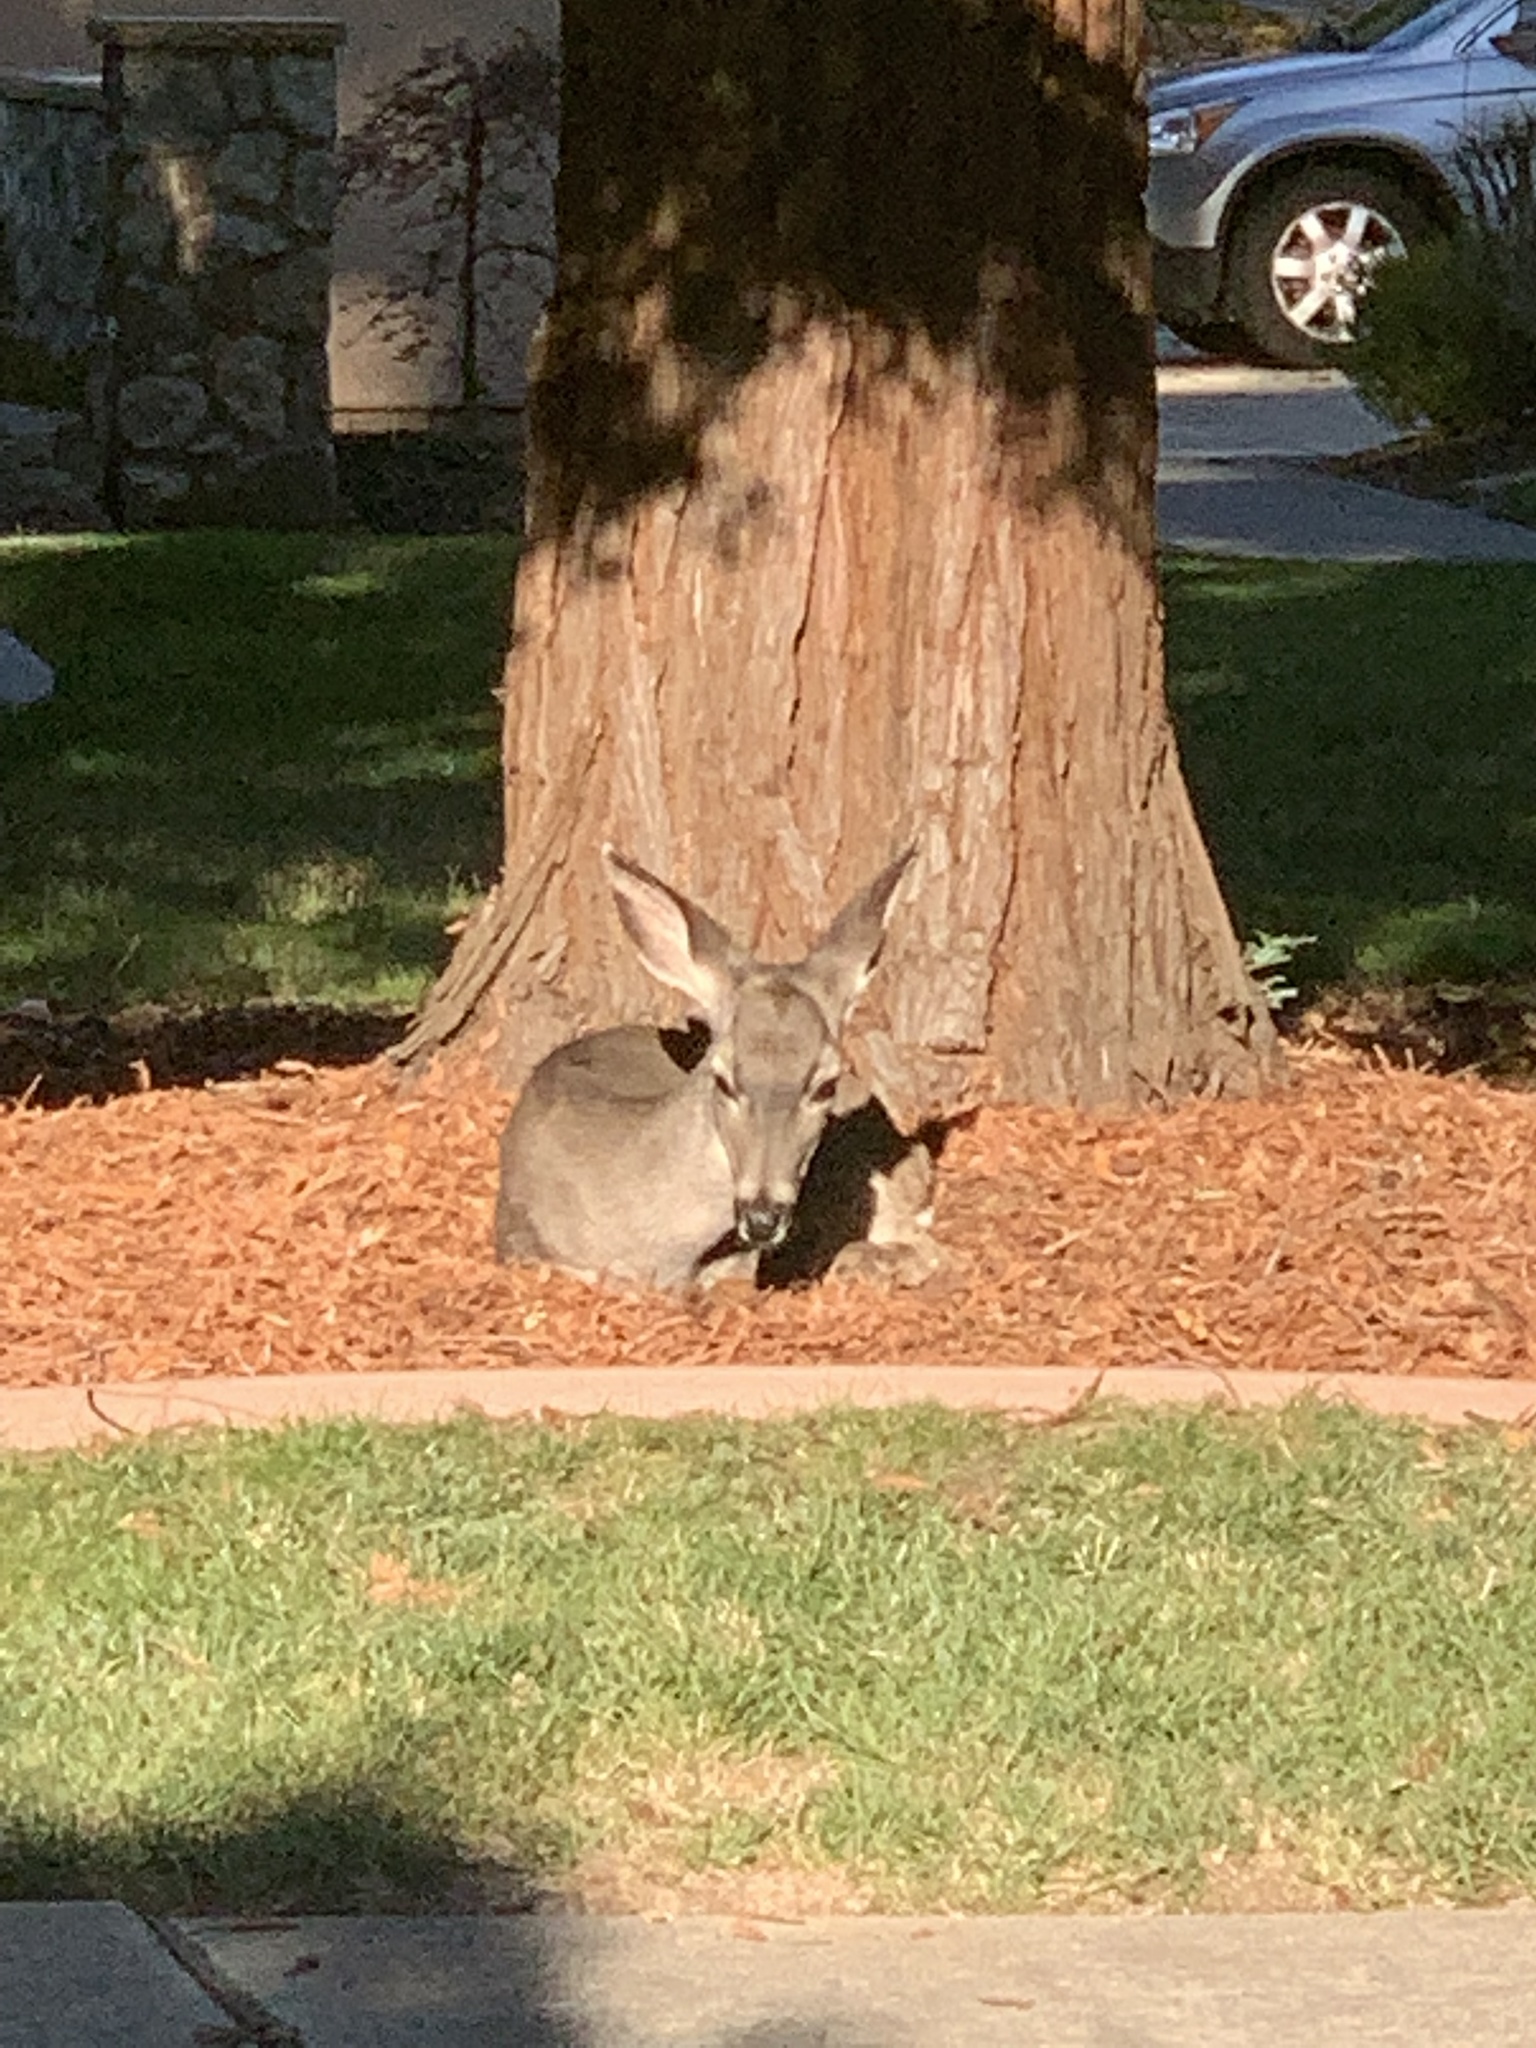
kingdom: Animalia
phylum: Chordata
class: Mammalia
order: Artiodactyla
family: Cervidae
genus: Odocoileus
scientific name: Odocoileus hemionus
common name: Mule deer
